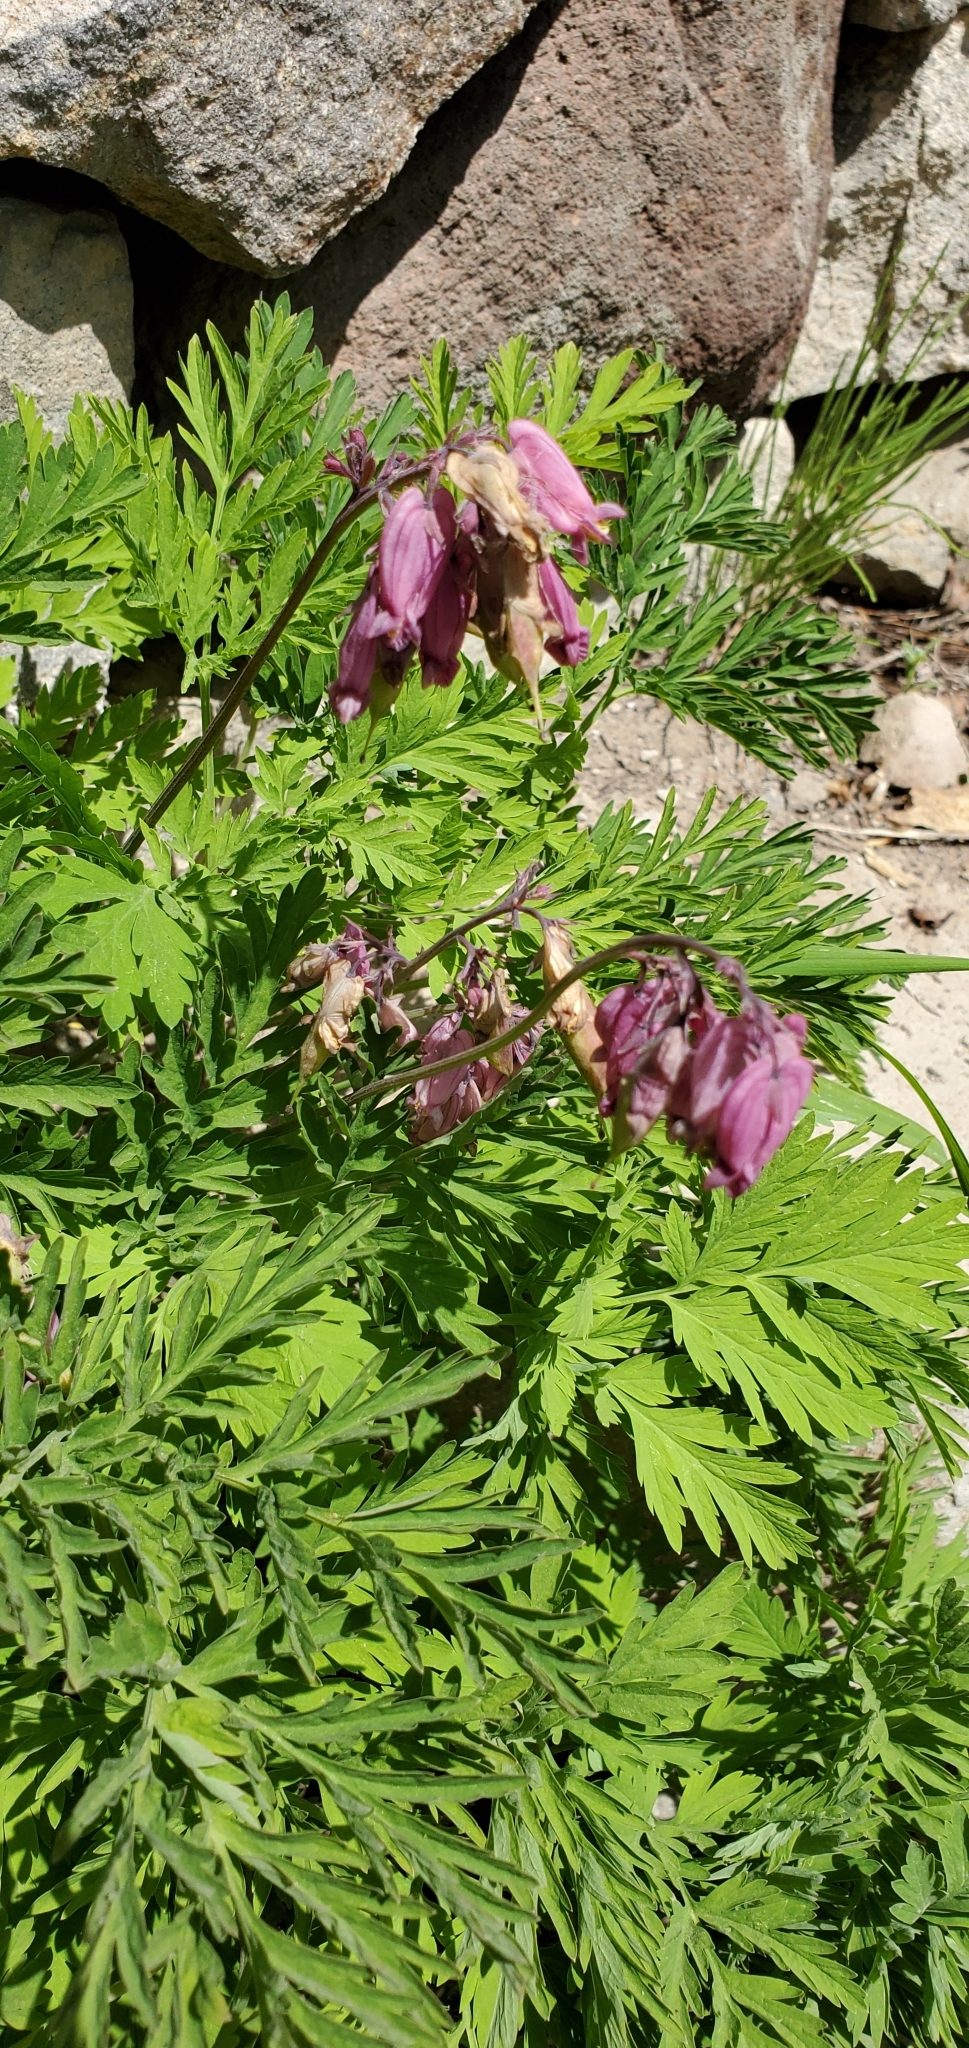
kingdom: Plantae
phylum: Tracheophyta
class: Magnoliopsida
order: Ranunculales
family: Papaveraceae
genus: Dicentra
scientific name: Dicentra formosa
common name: Bleeding-heart
